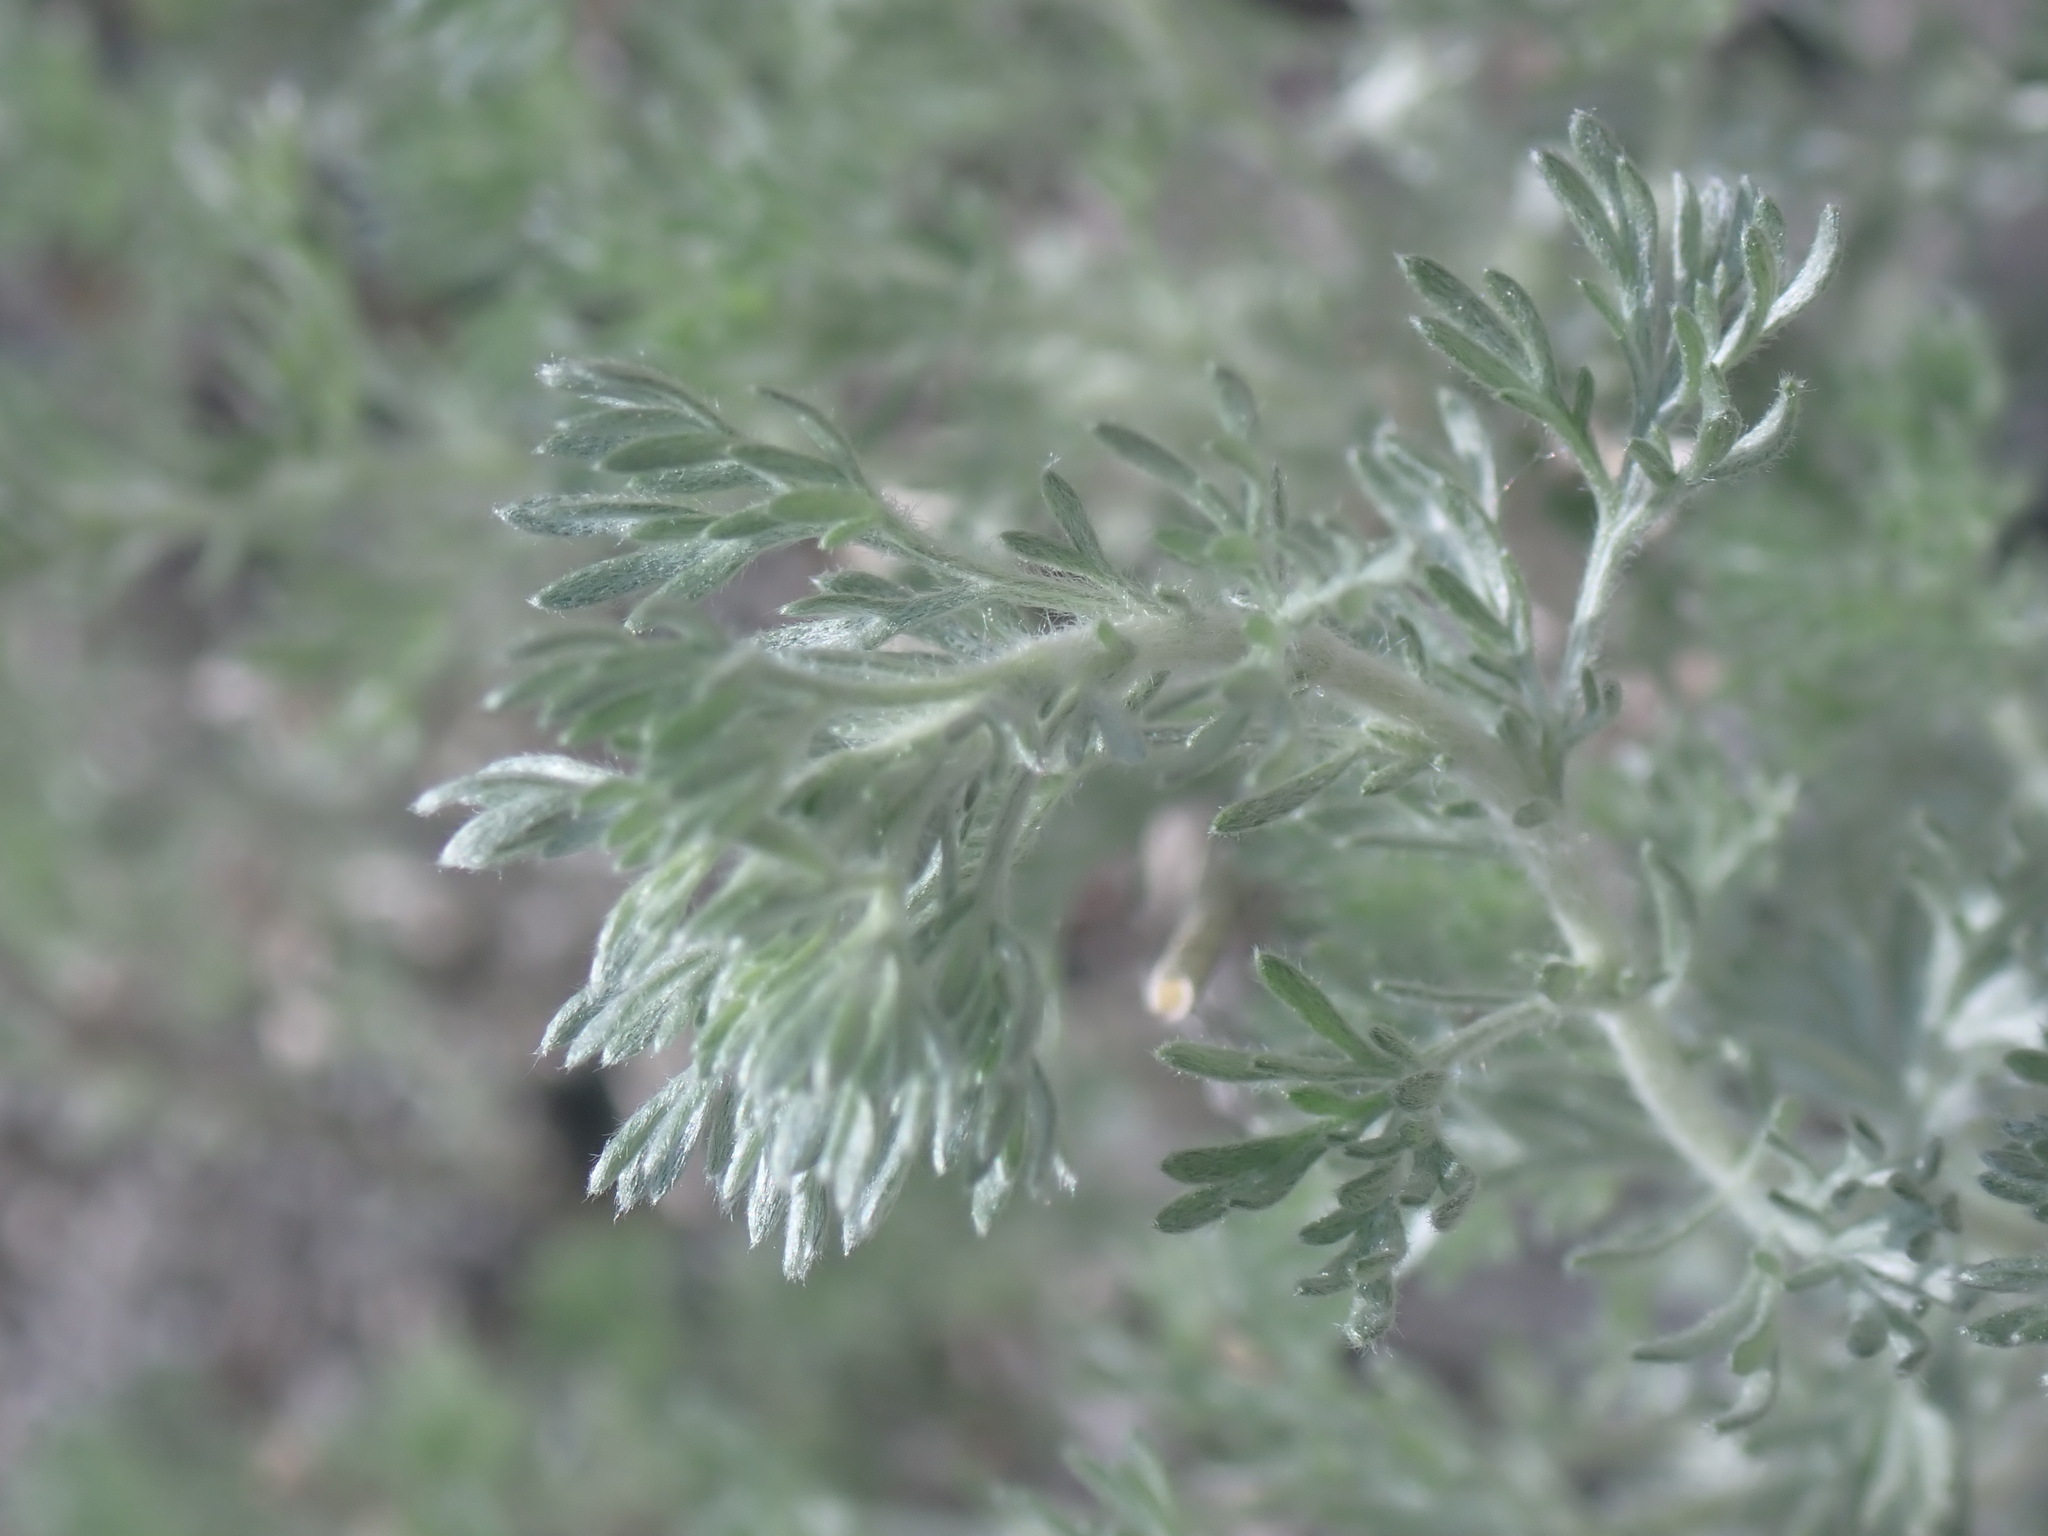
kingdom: Plantae
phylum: Tracheophyta
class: Magnoliopsida
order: Asterales
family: Asteraceae
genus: Artemisia
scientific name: Artemisia frigida
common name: Prairie sagewort
